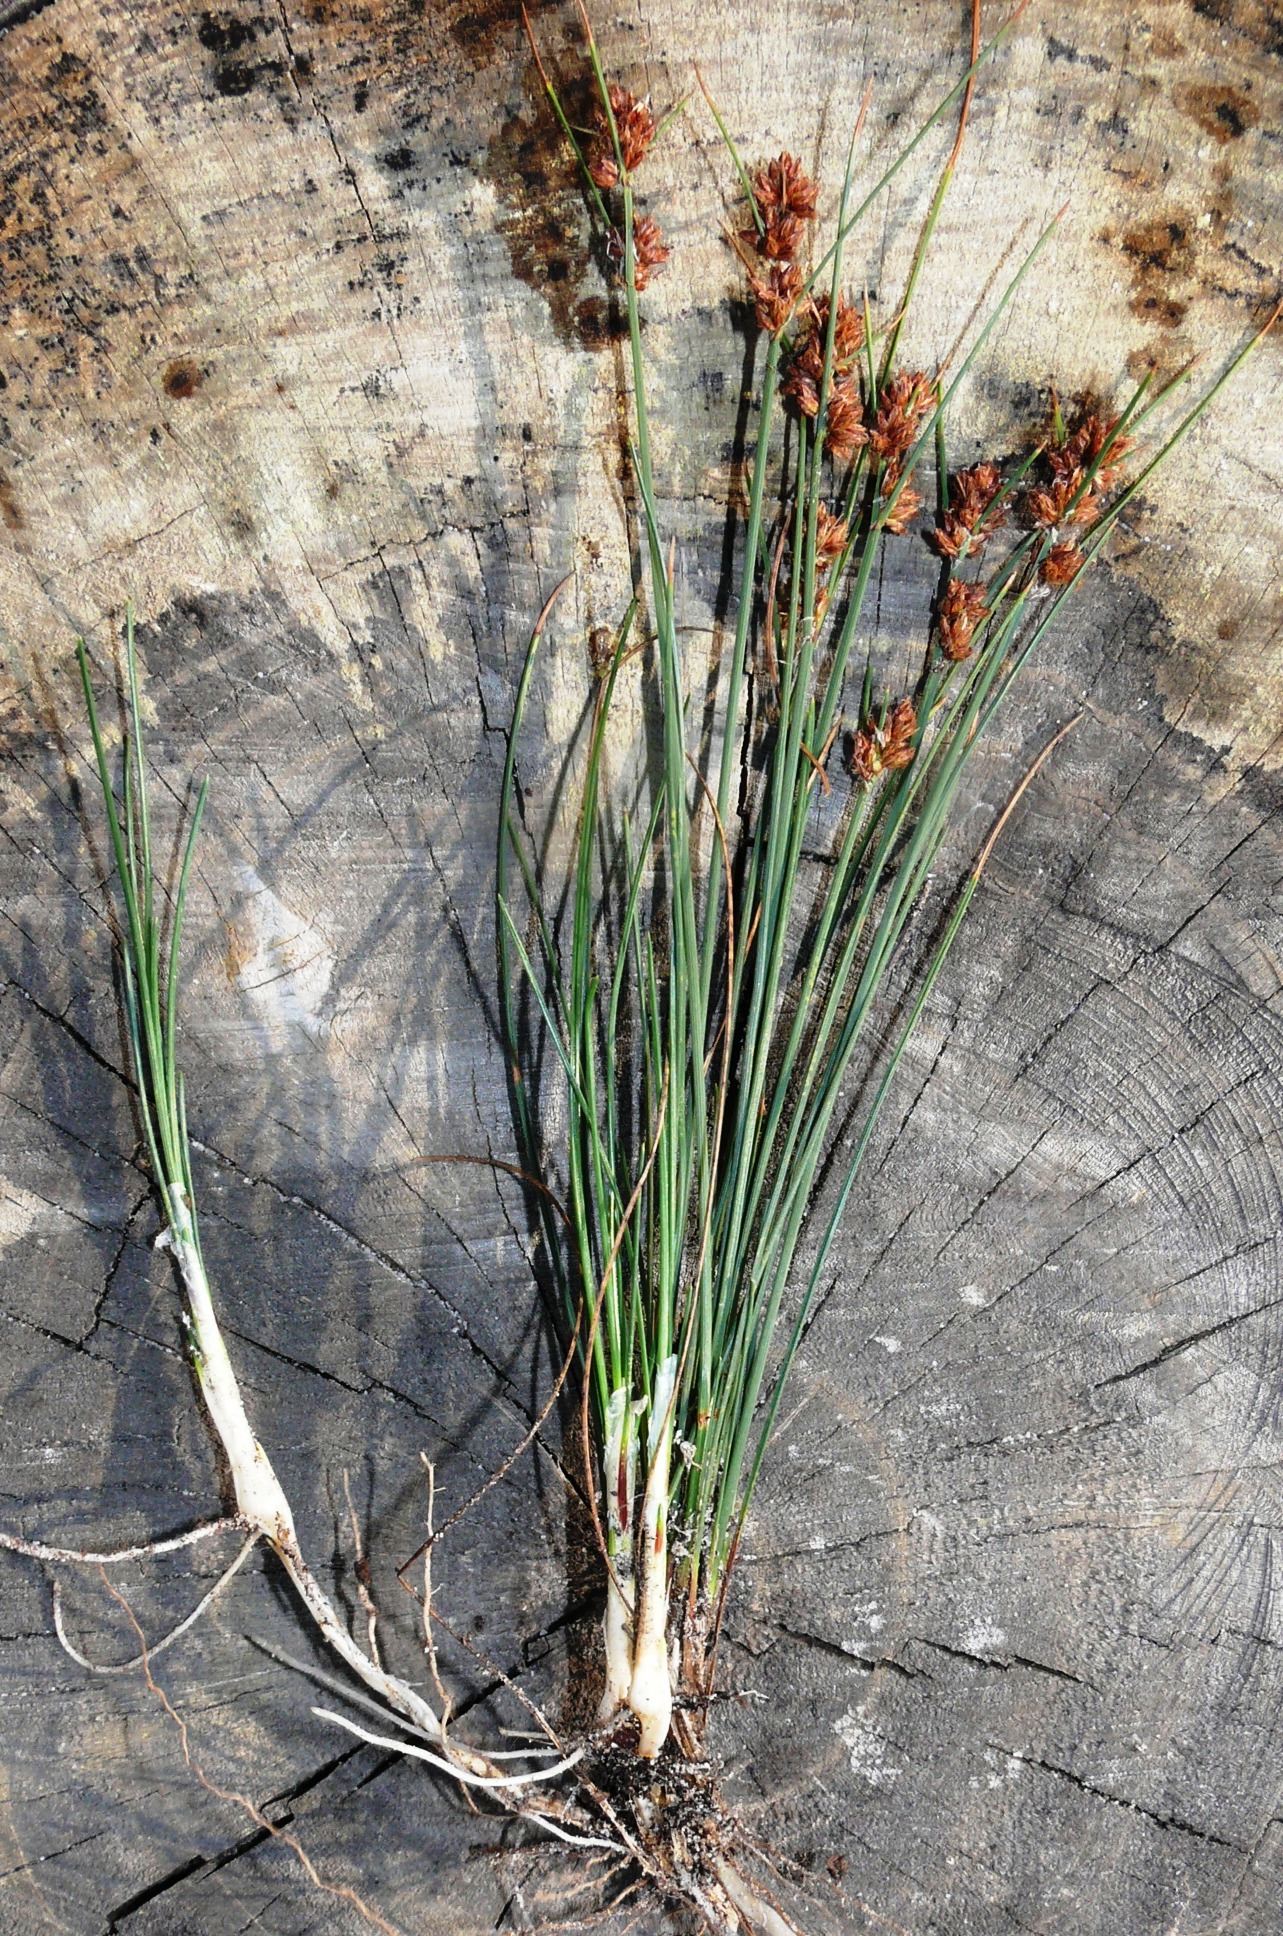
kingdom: Plantae
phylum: Tracheophyta
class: Liliopsida
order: Poales
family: Cyperaceae
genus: Ficinia
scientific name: Ficinia bulbosa
